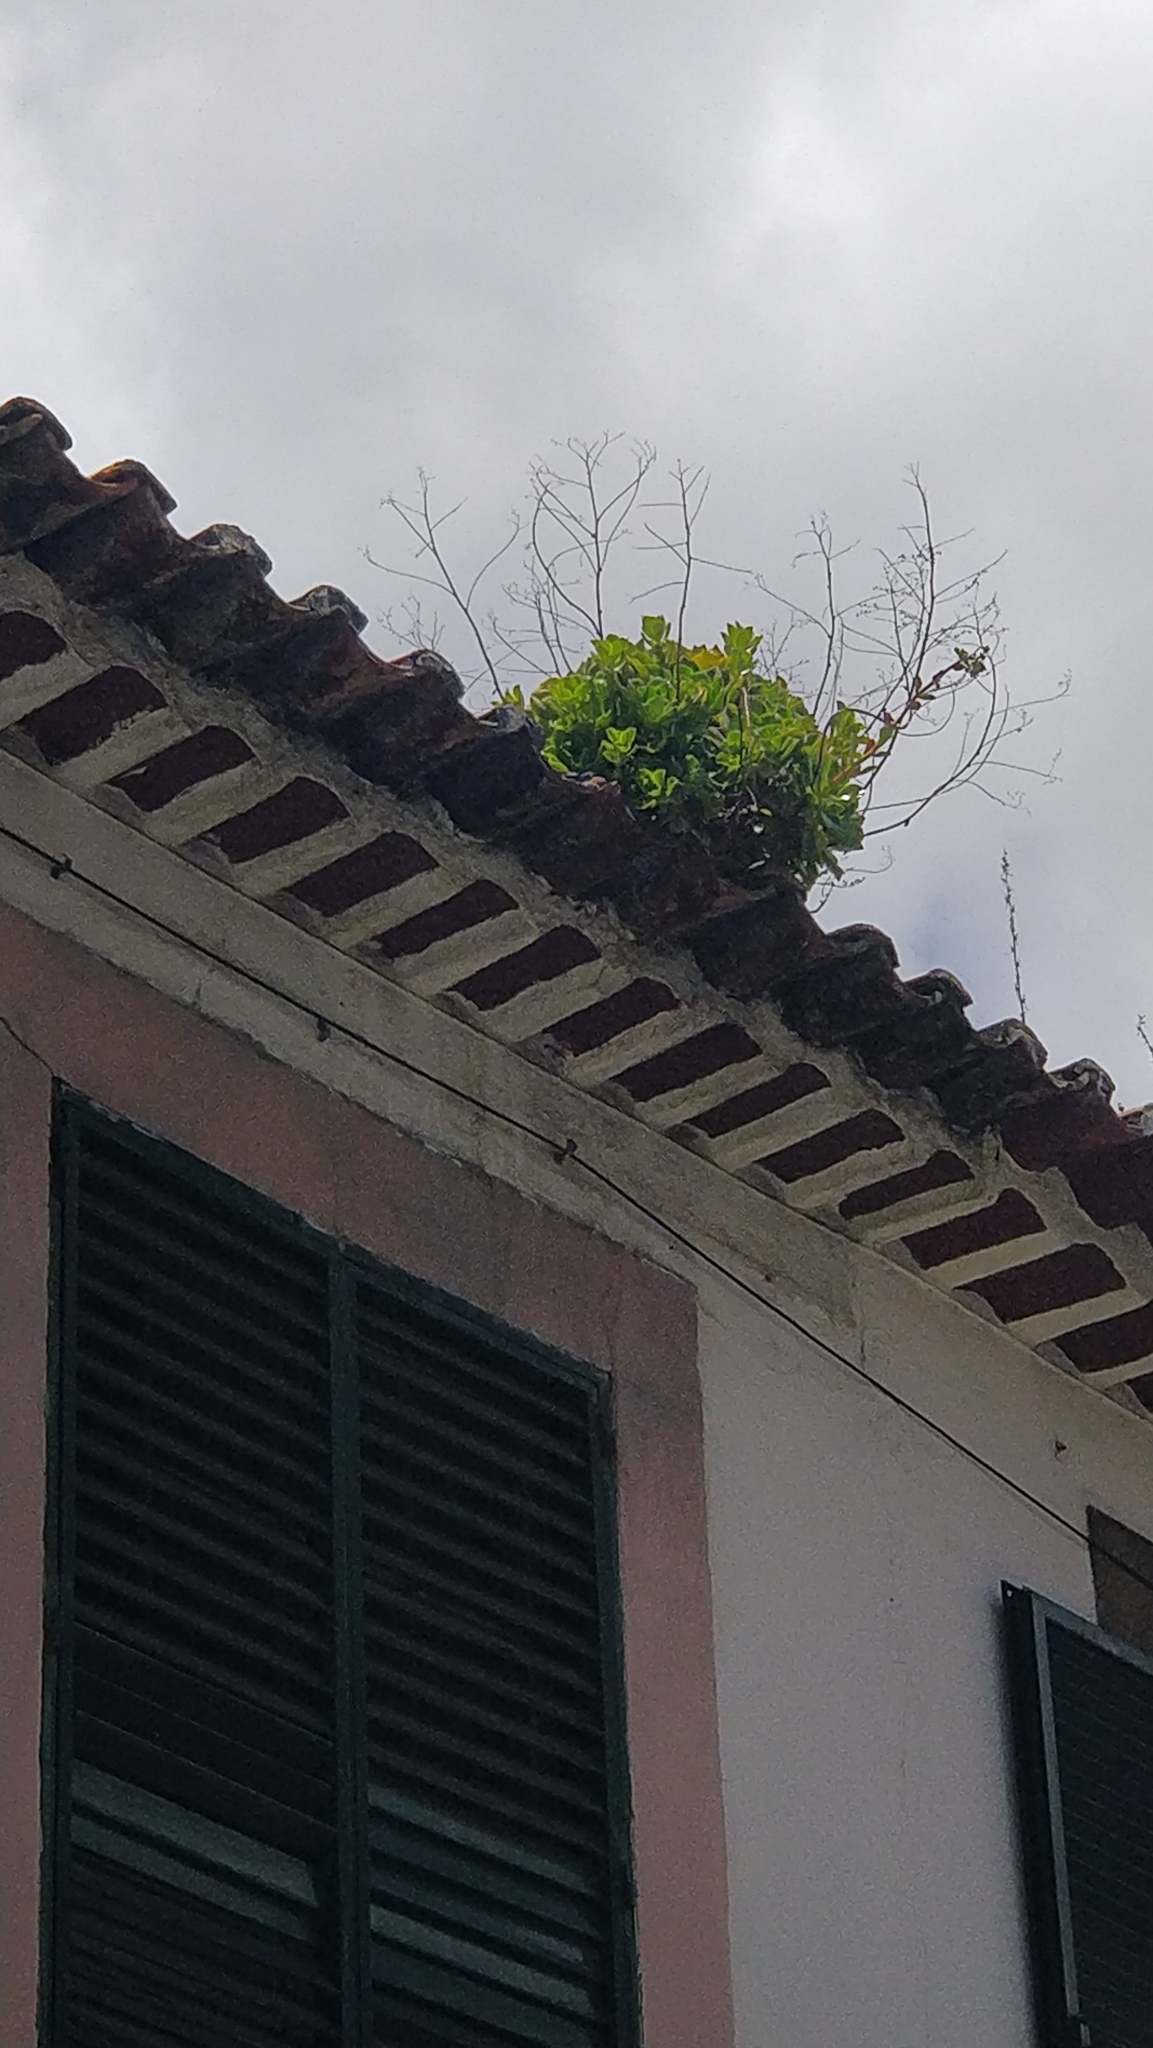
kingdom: Plantae
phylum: Tracheophyta
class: Magnoliopsida
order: Saxifragales
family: Crassulaceae
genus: Aeonium
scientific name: Aeonium glutinosum
